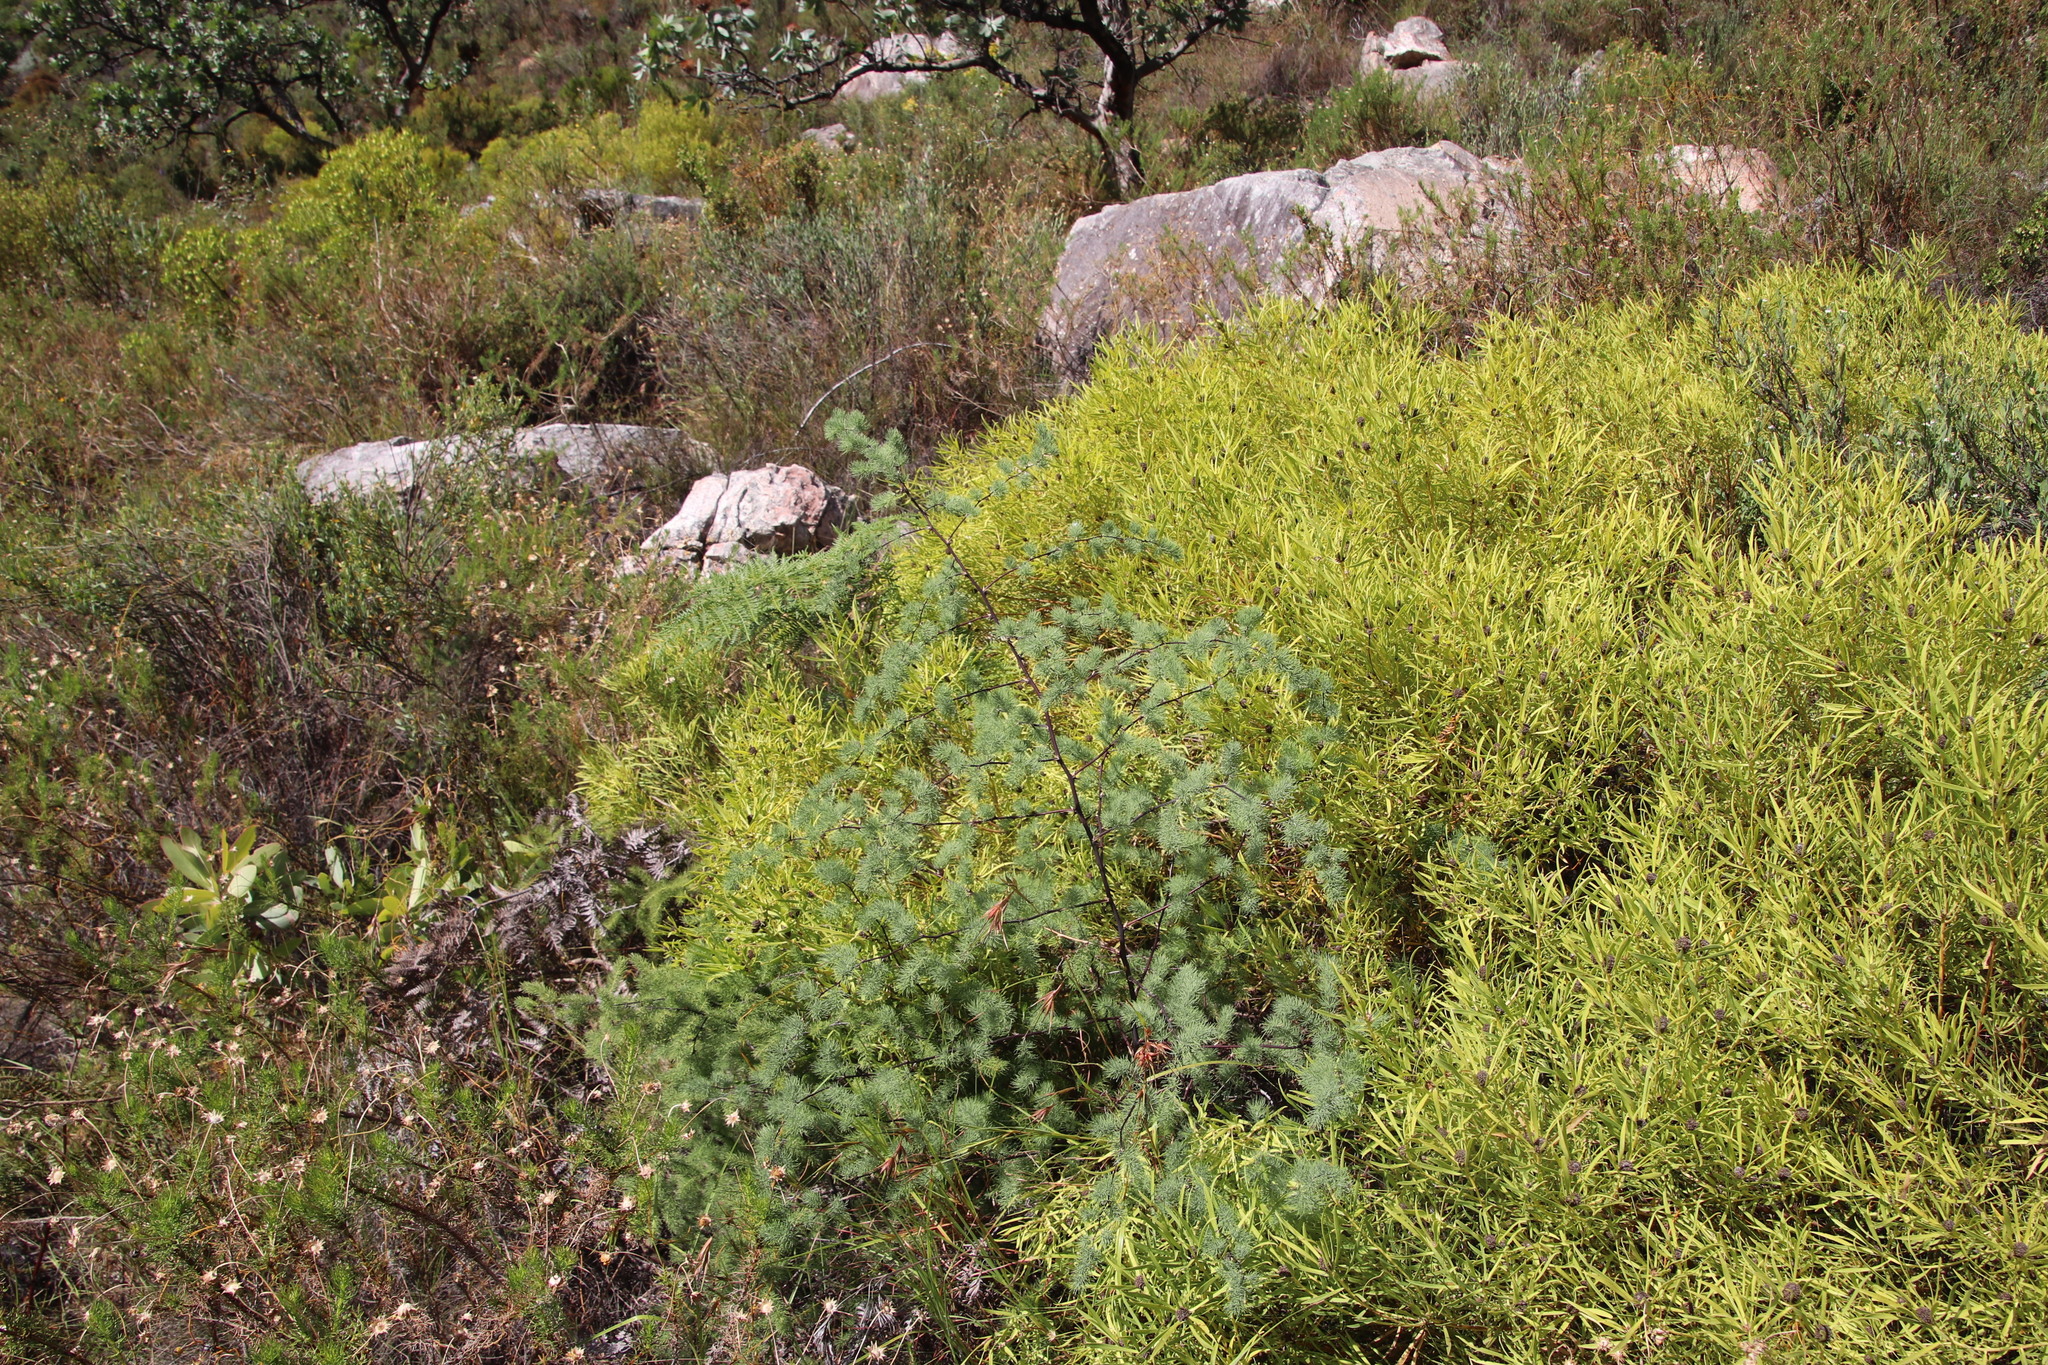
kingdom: Plantae
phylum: Tracheophyta
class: Liliopsida
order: Asparagales
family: Asparagaceae
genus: Asparagus
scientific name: Asparagus rubicundus
